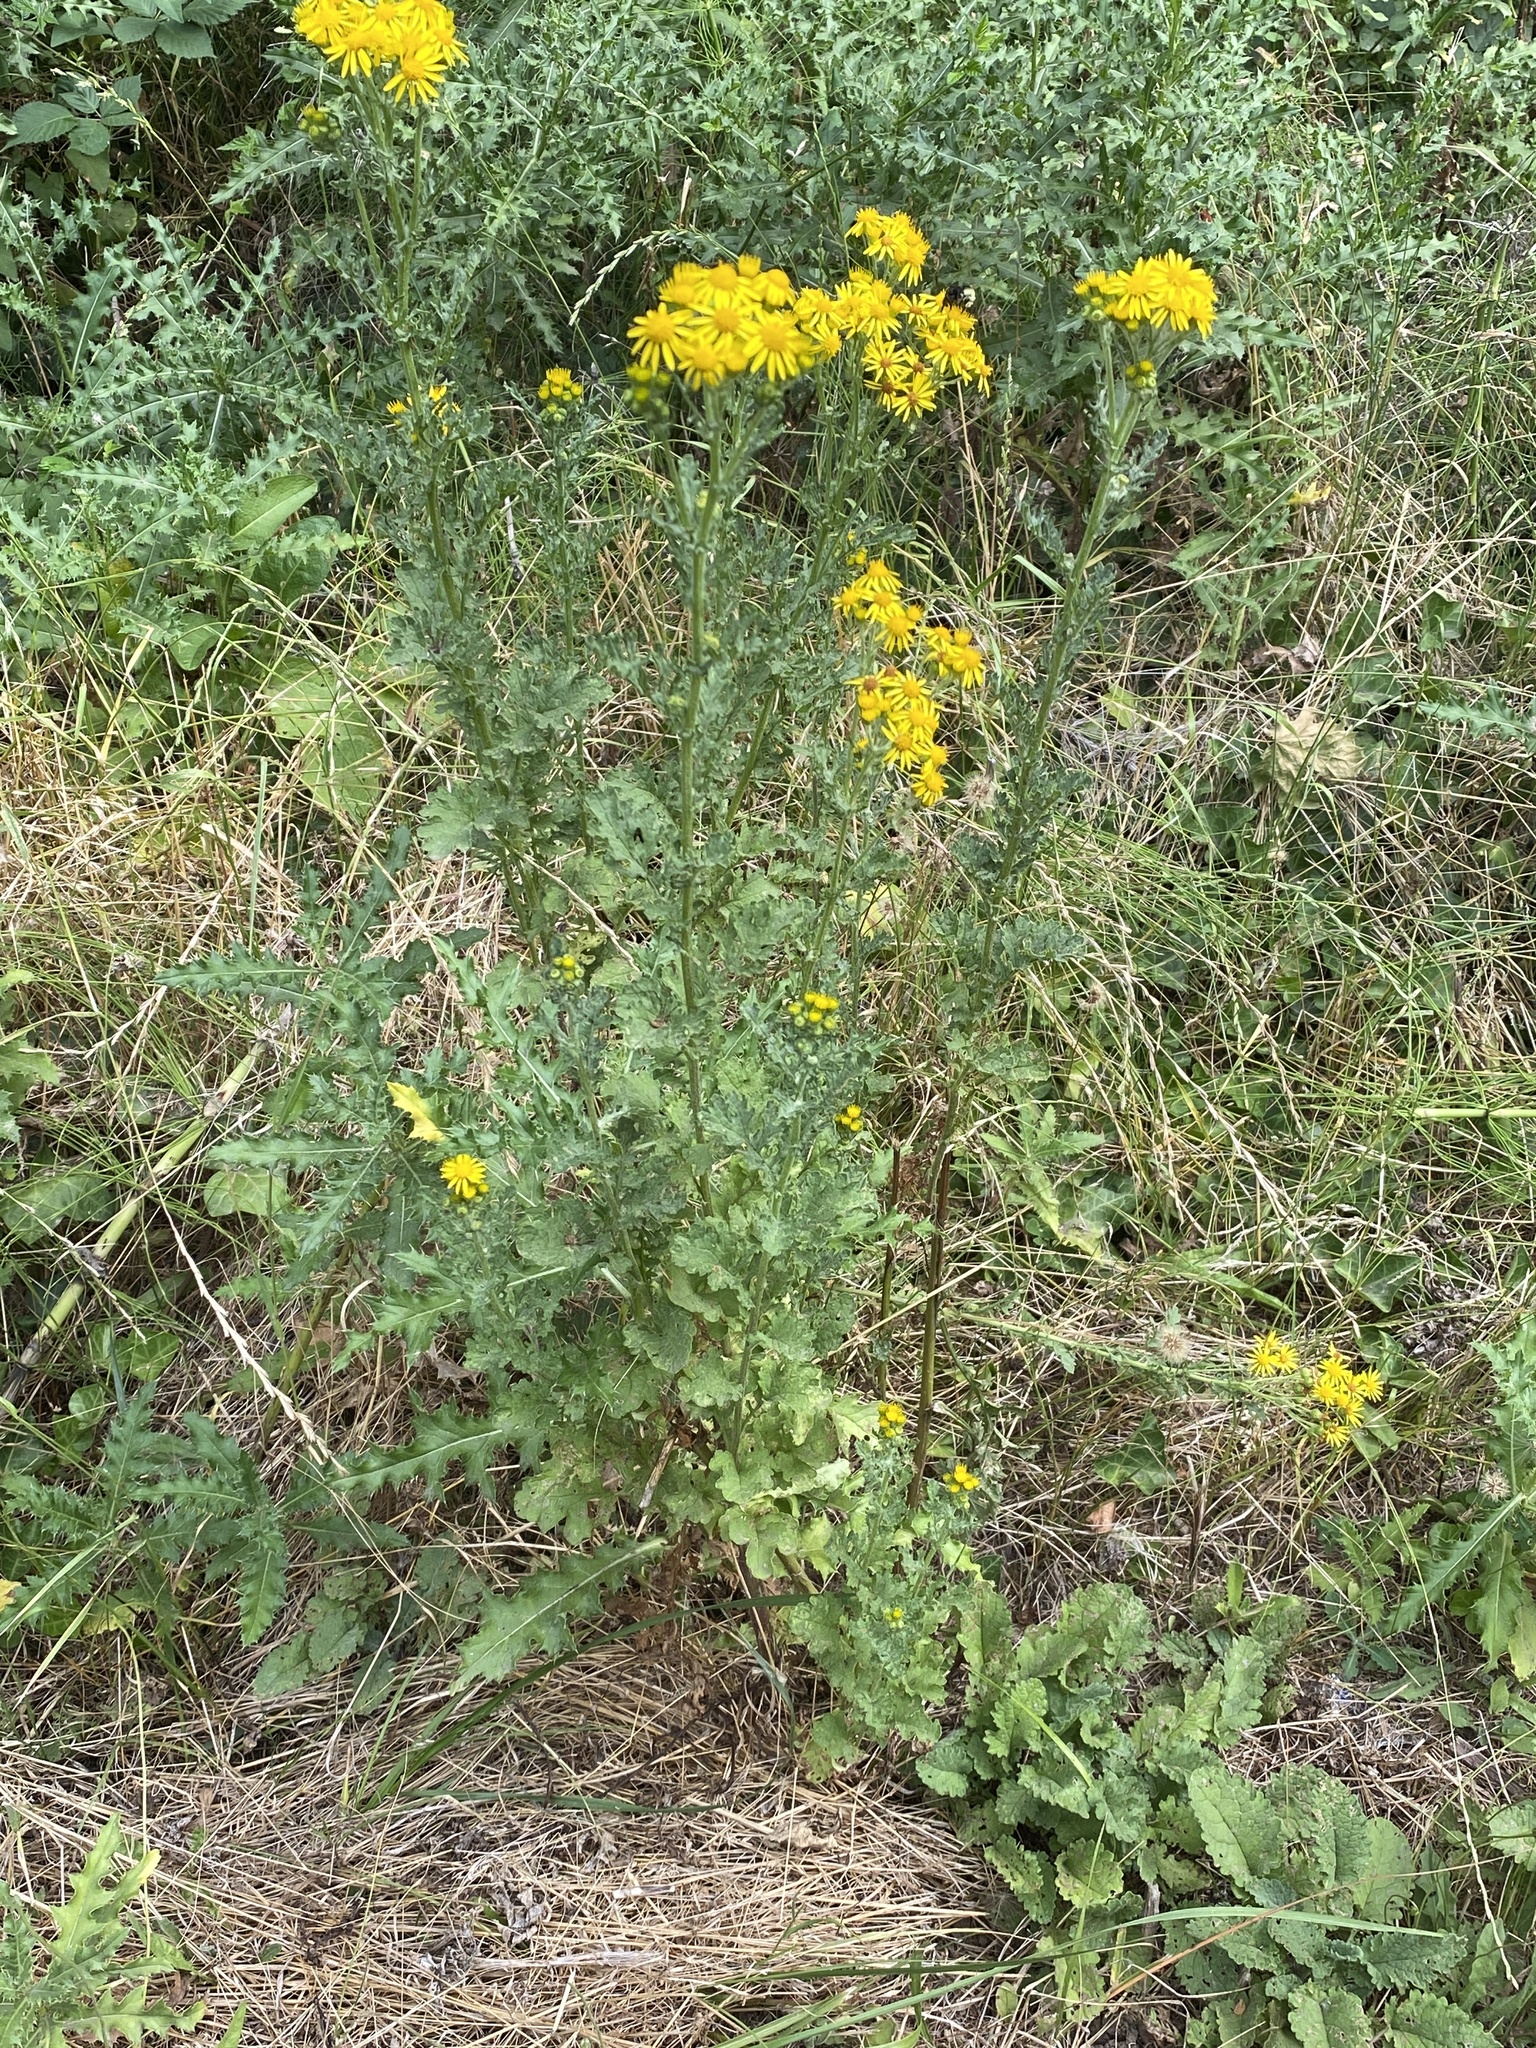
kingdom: Plantae
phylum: Tracheophyta
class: Magnoliopsida
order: Asterales
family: Asteraceae
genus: Jacobaea
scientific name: Jacobaea vulgaris
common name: Stinking willie
